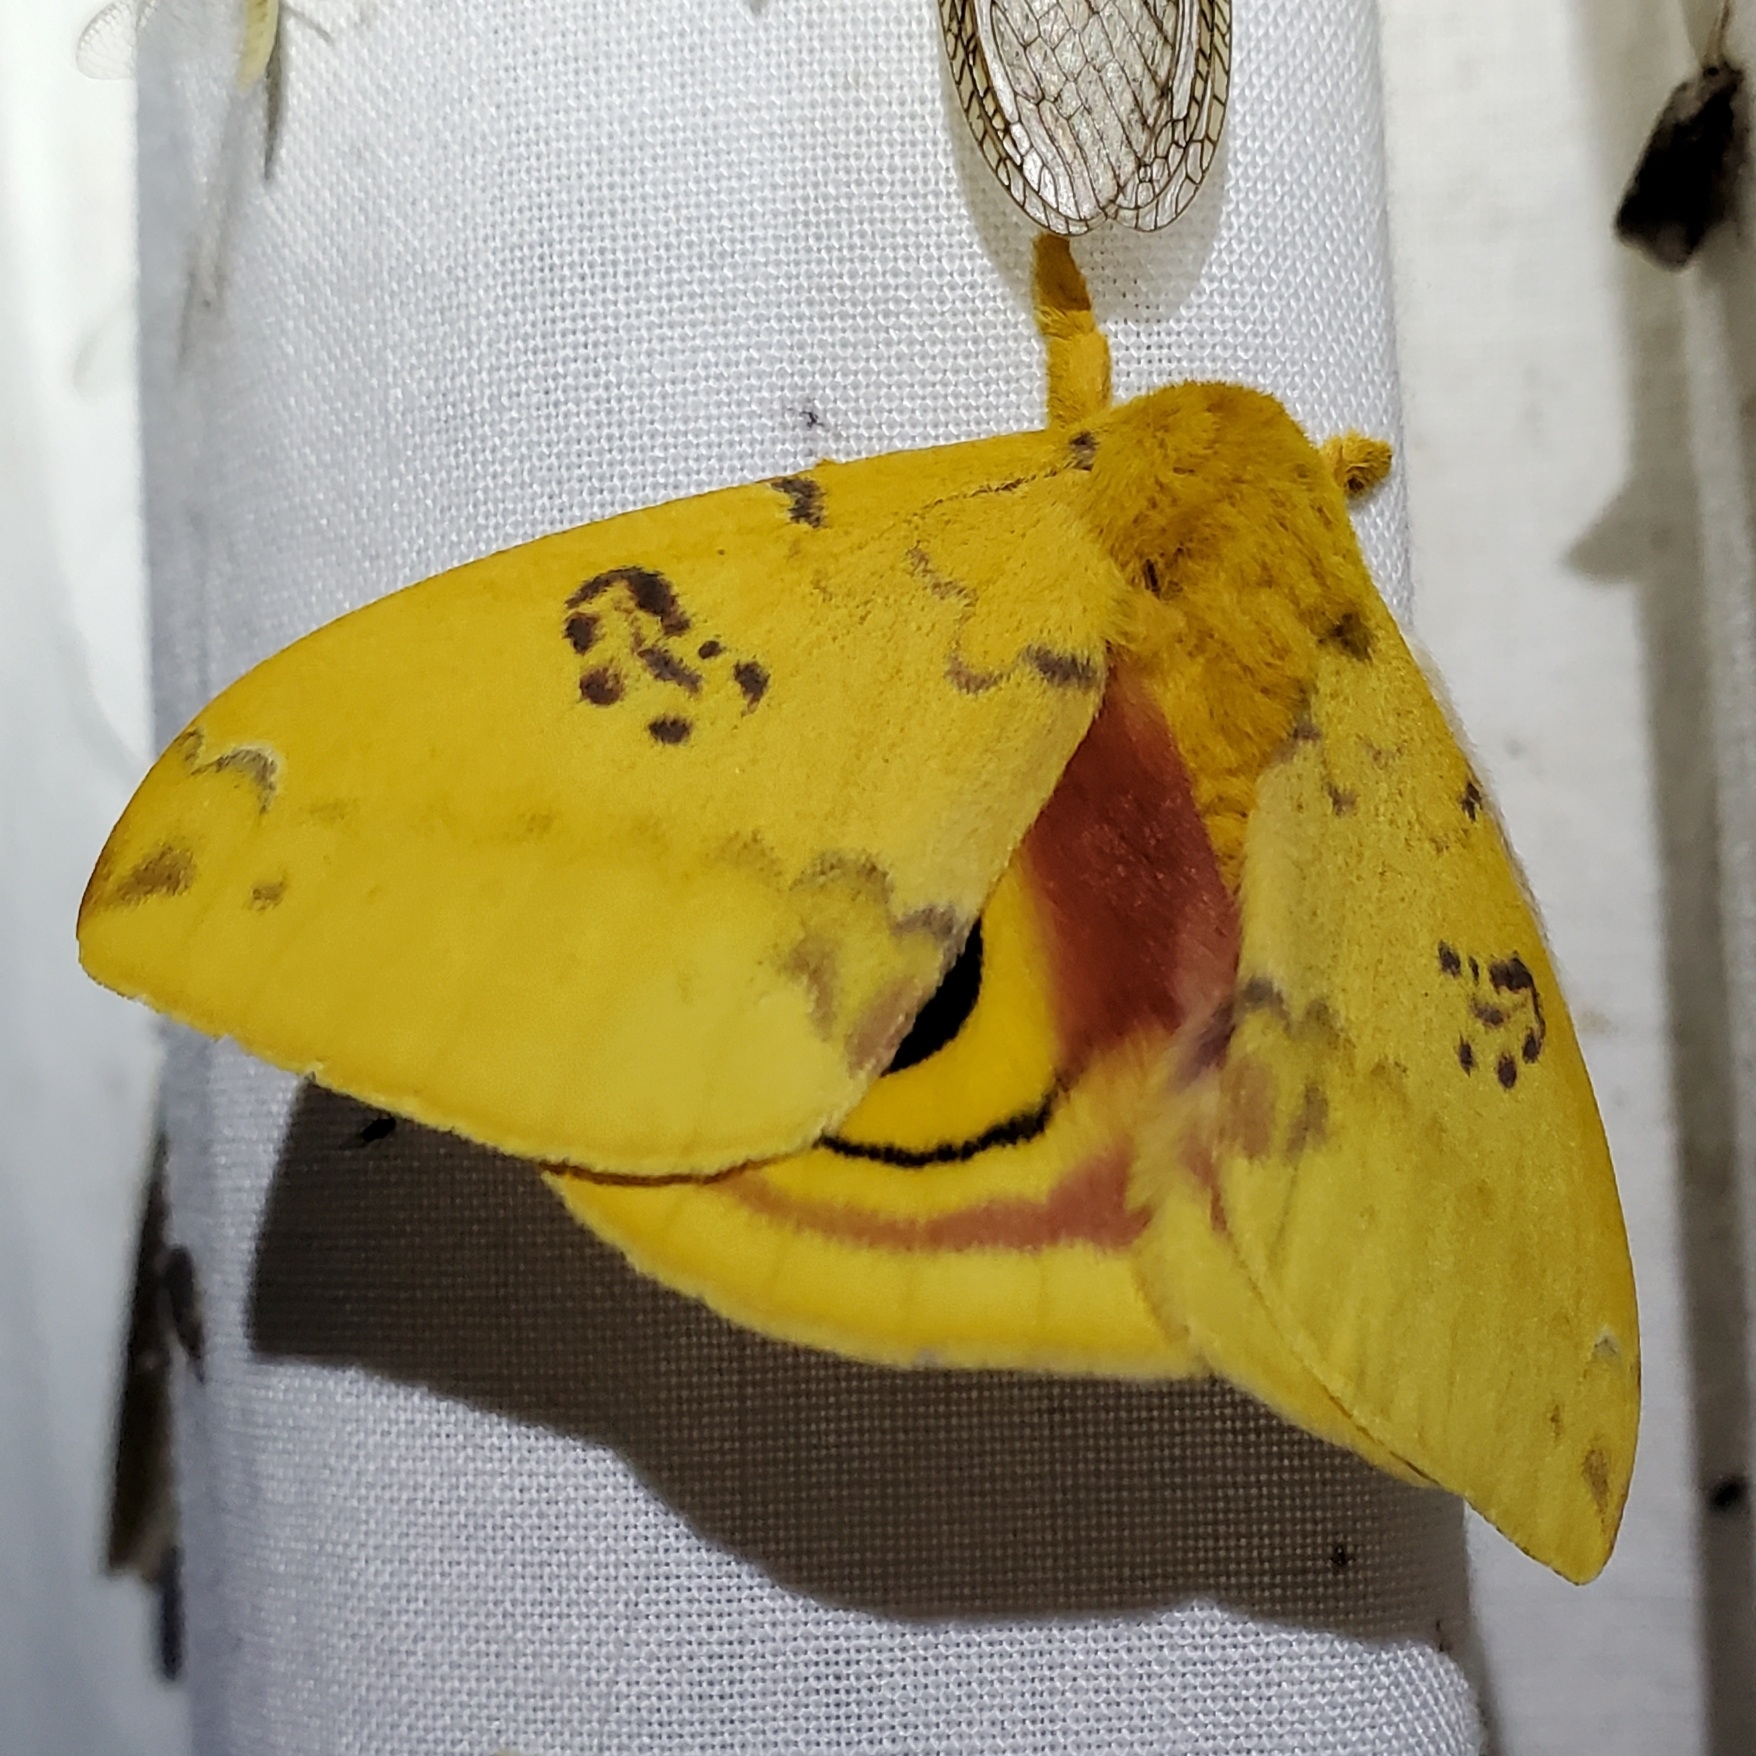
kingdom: Animalia
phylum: Arthropoda
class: Insecta
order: Lepidoptera
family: Saturniidae
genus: Automeris
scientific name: Automeris io
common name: Io moth
